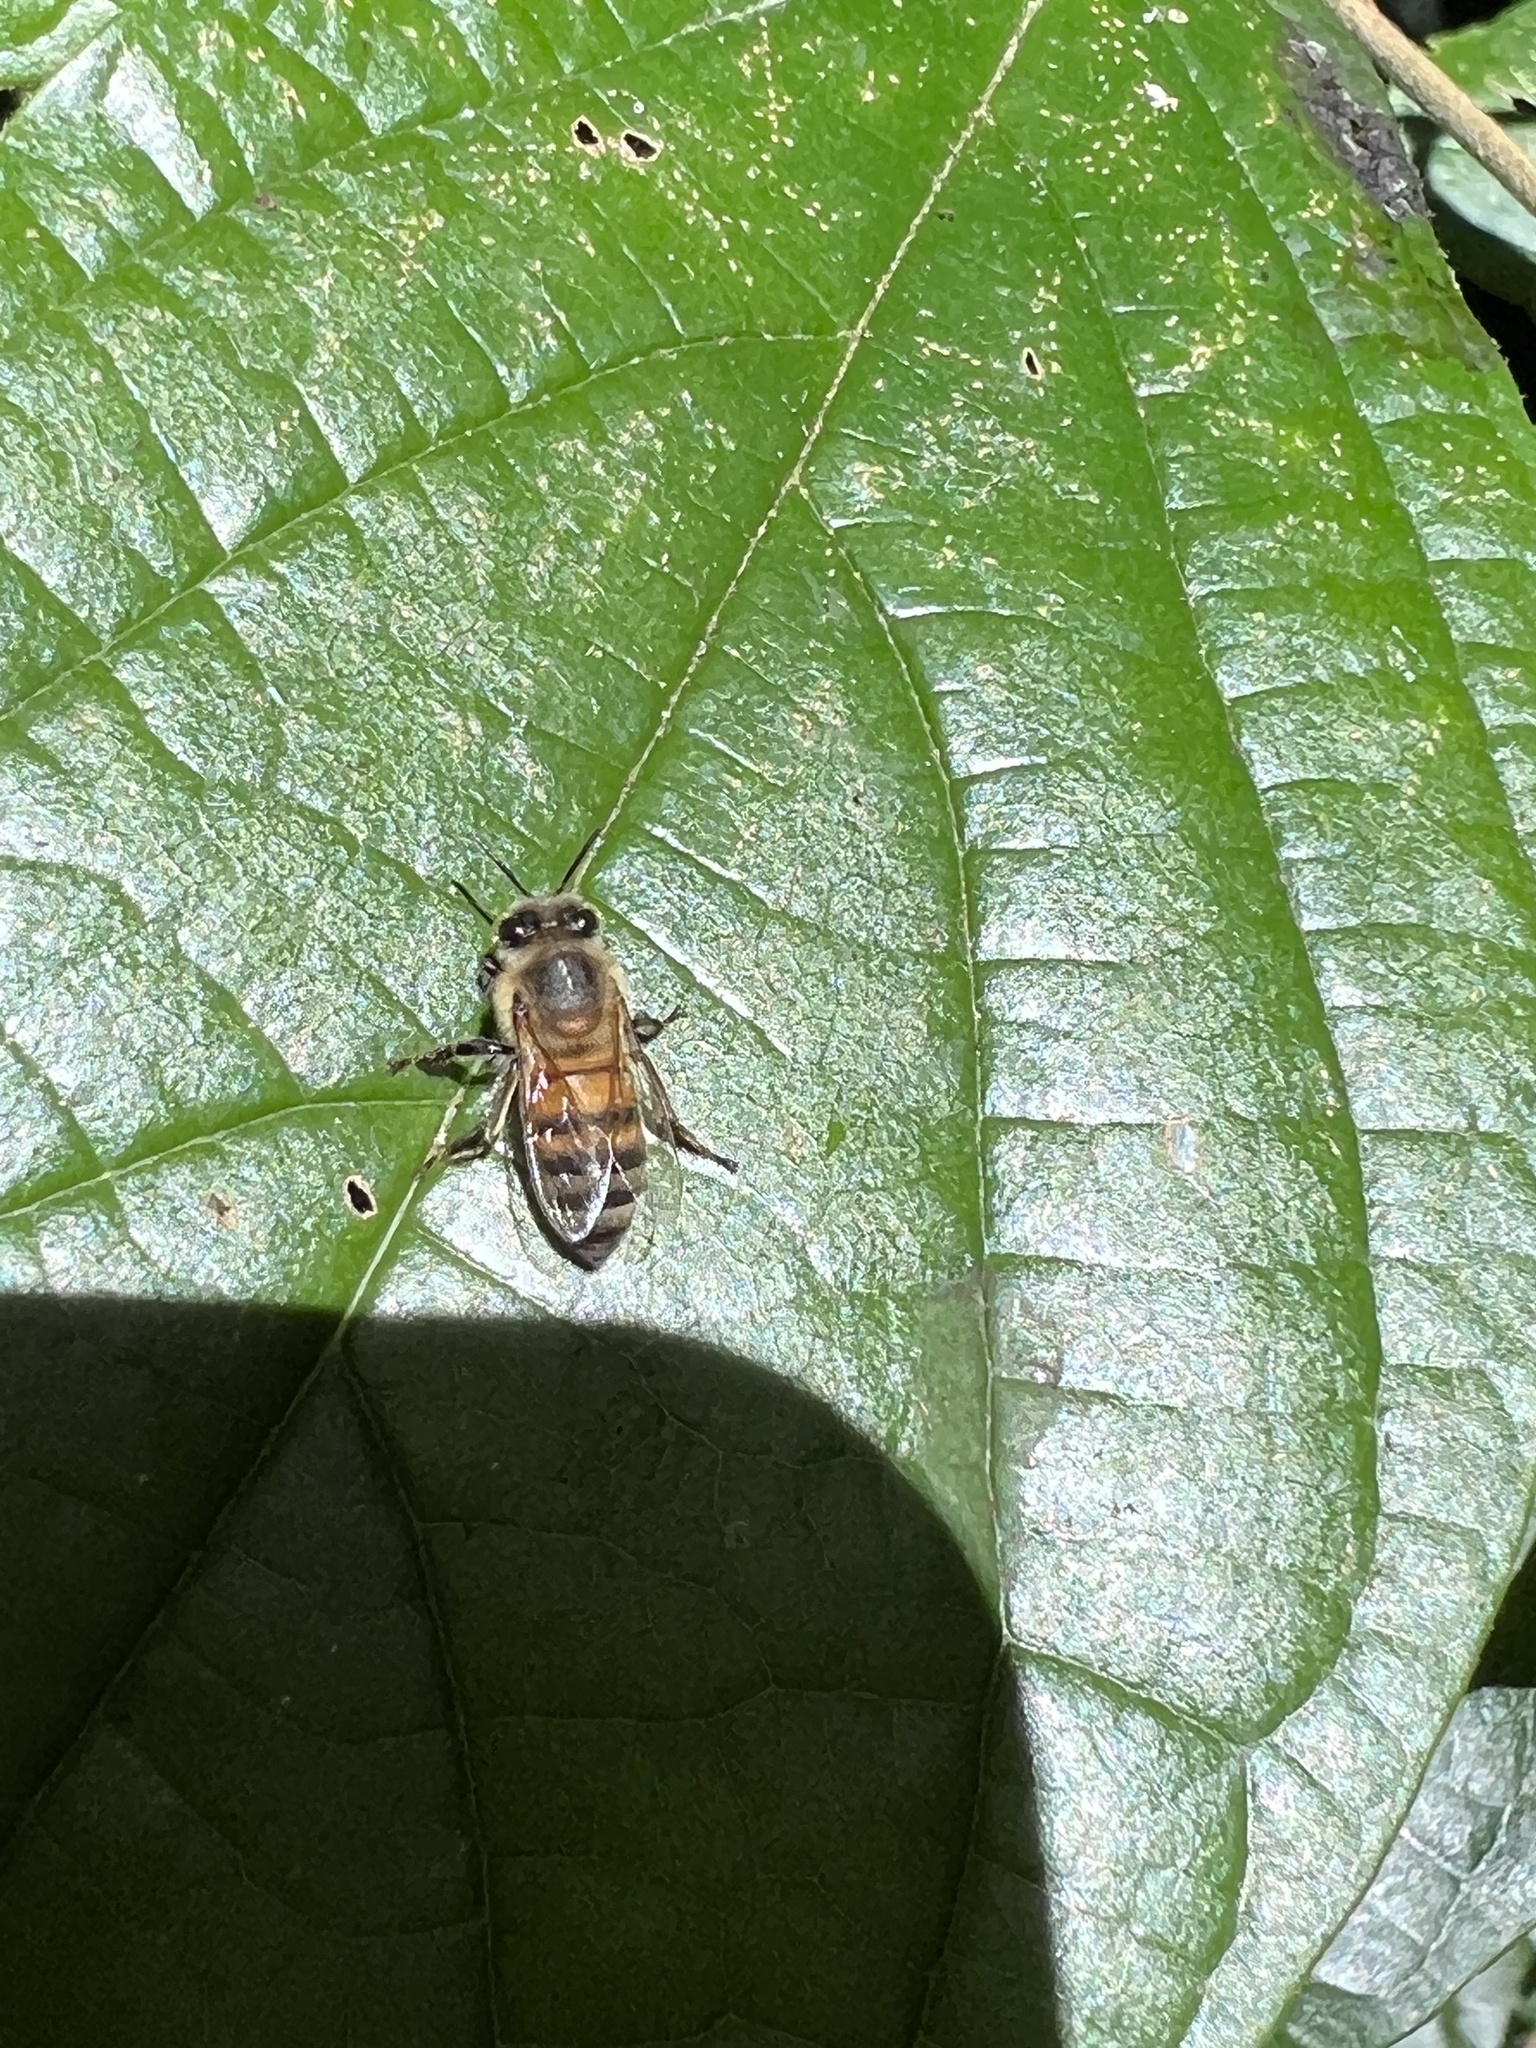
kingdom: Animalia
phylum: Arthropoda
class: Insecta
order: Hymenoptera
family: Apidae
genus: Apis
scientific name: Apis mellifera
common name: Honey bee
